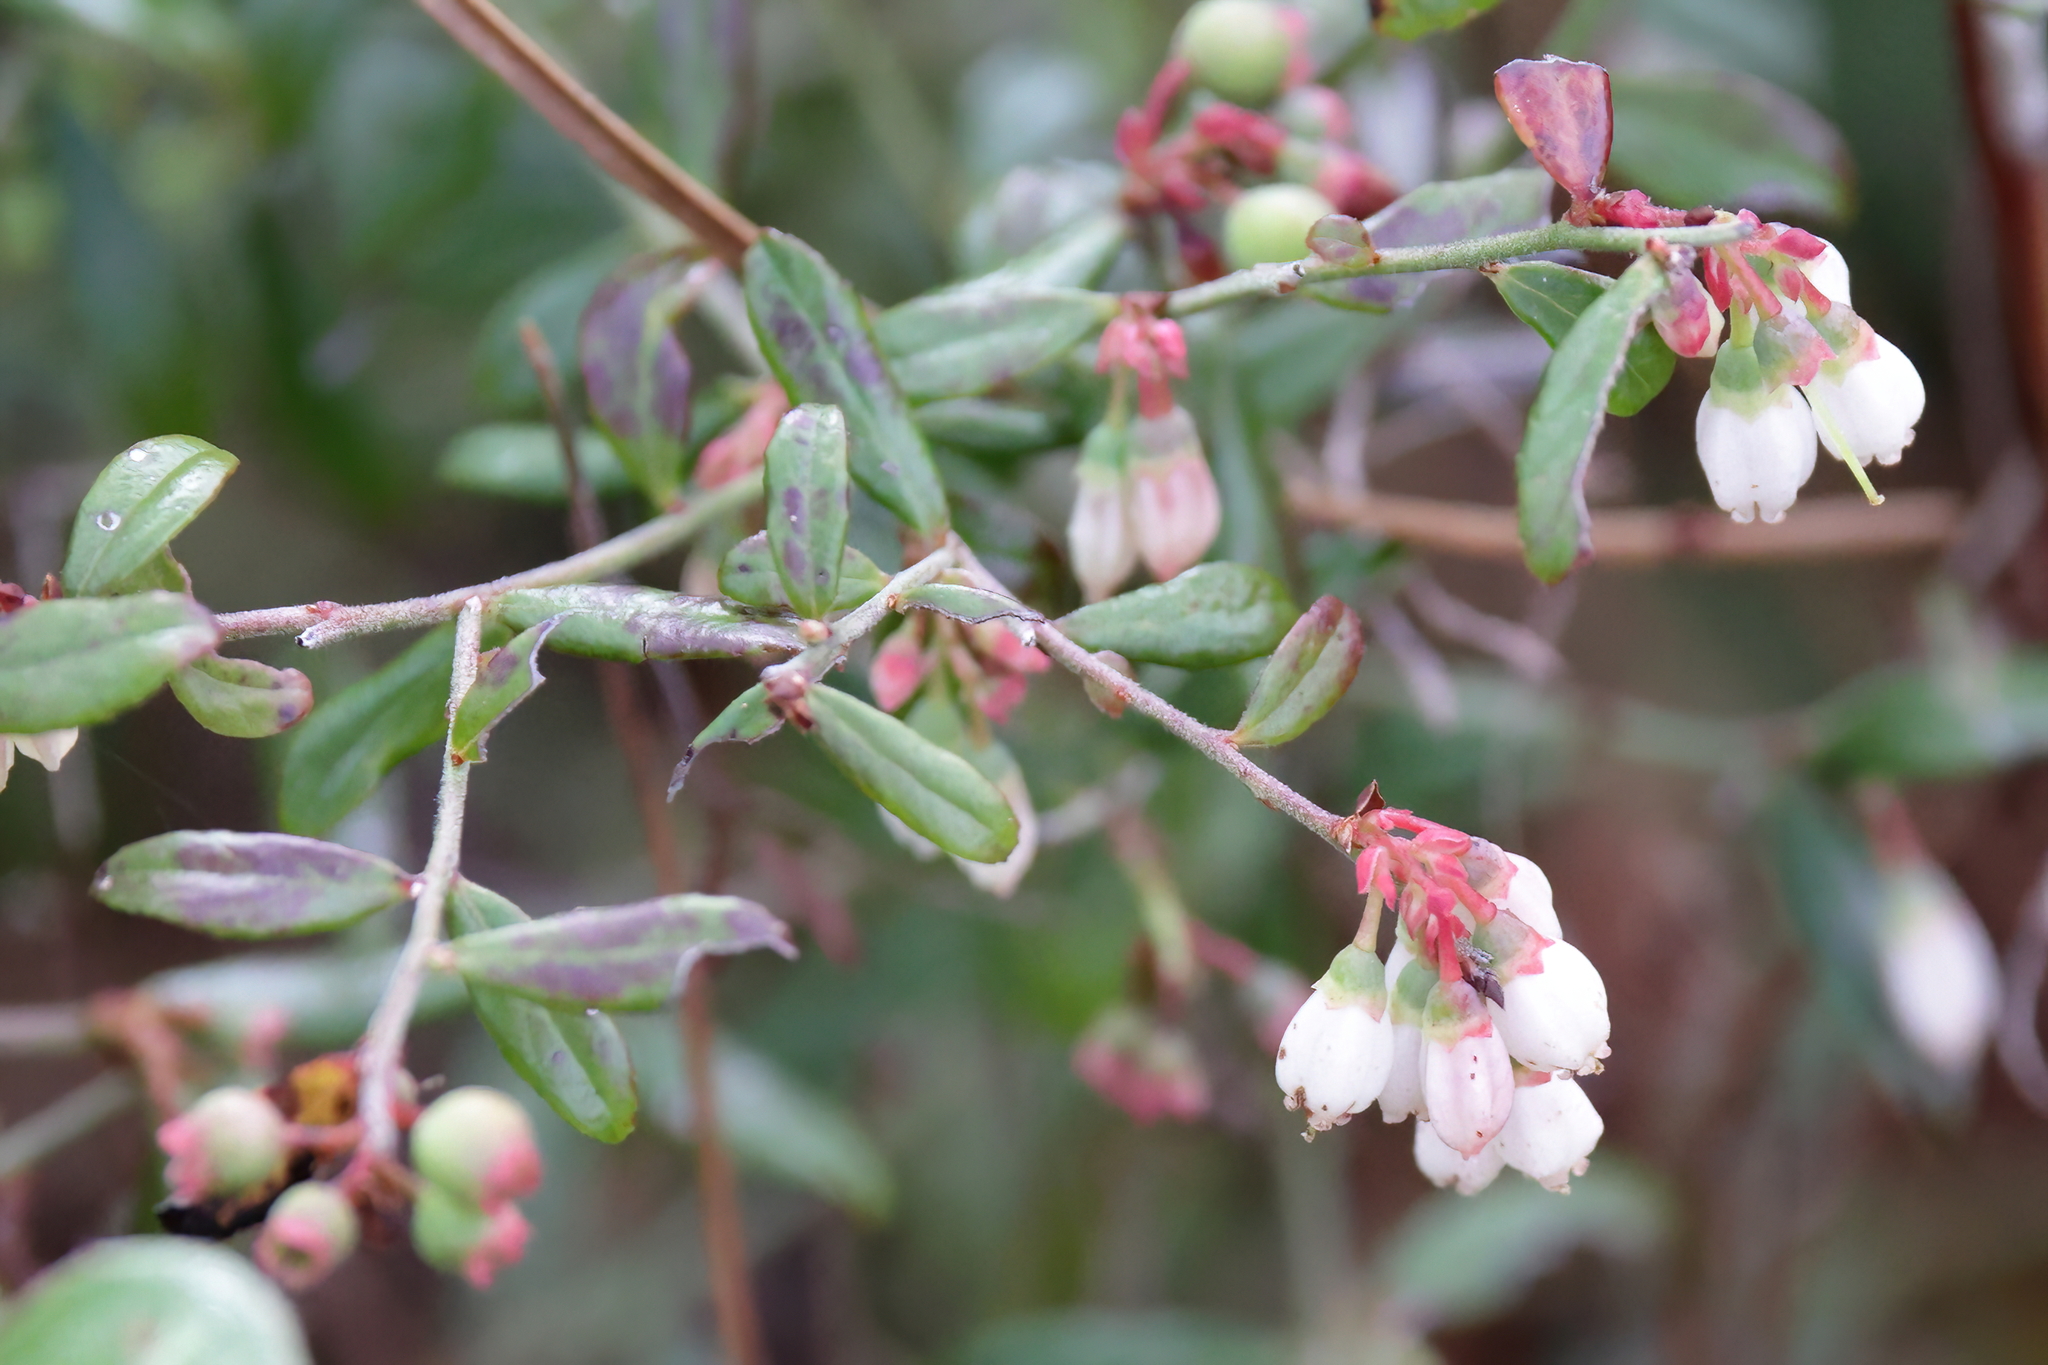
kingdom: Plantae
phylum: Tracheophyta
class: Magnoliopsida
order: Ericales
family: Ericaceae
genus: Vaccinium
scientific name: Vaccinium darrowii
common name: Darrow's blueberry
